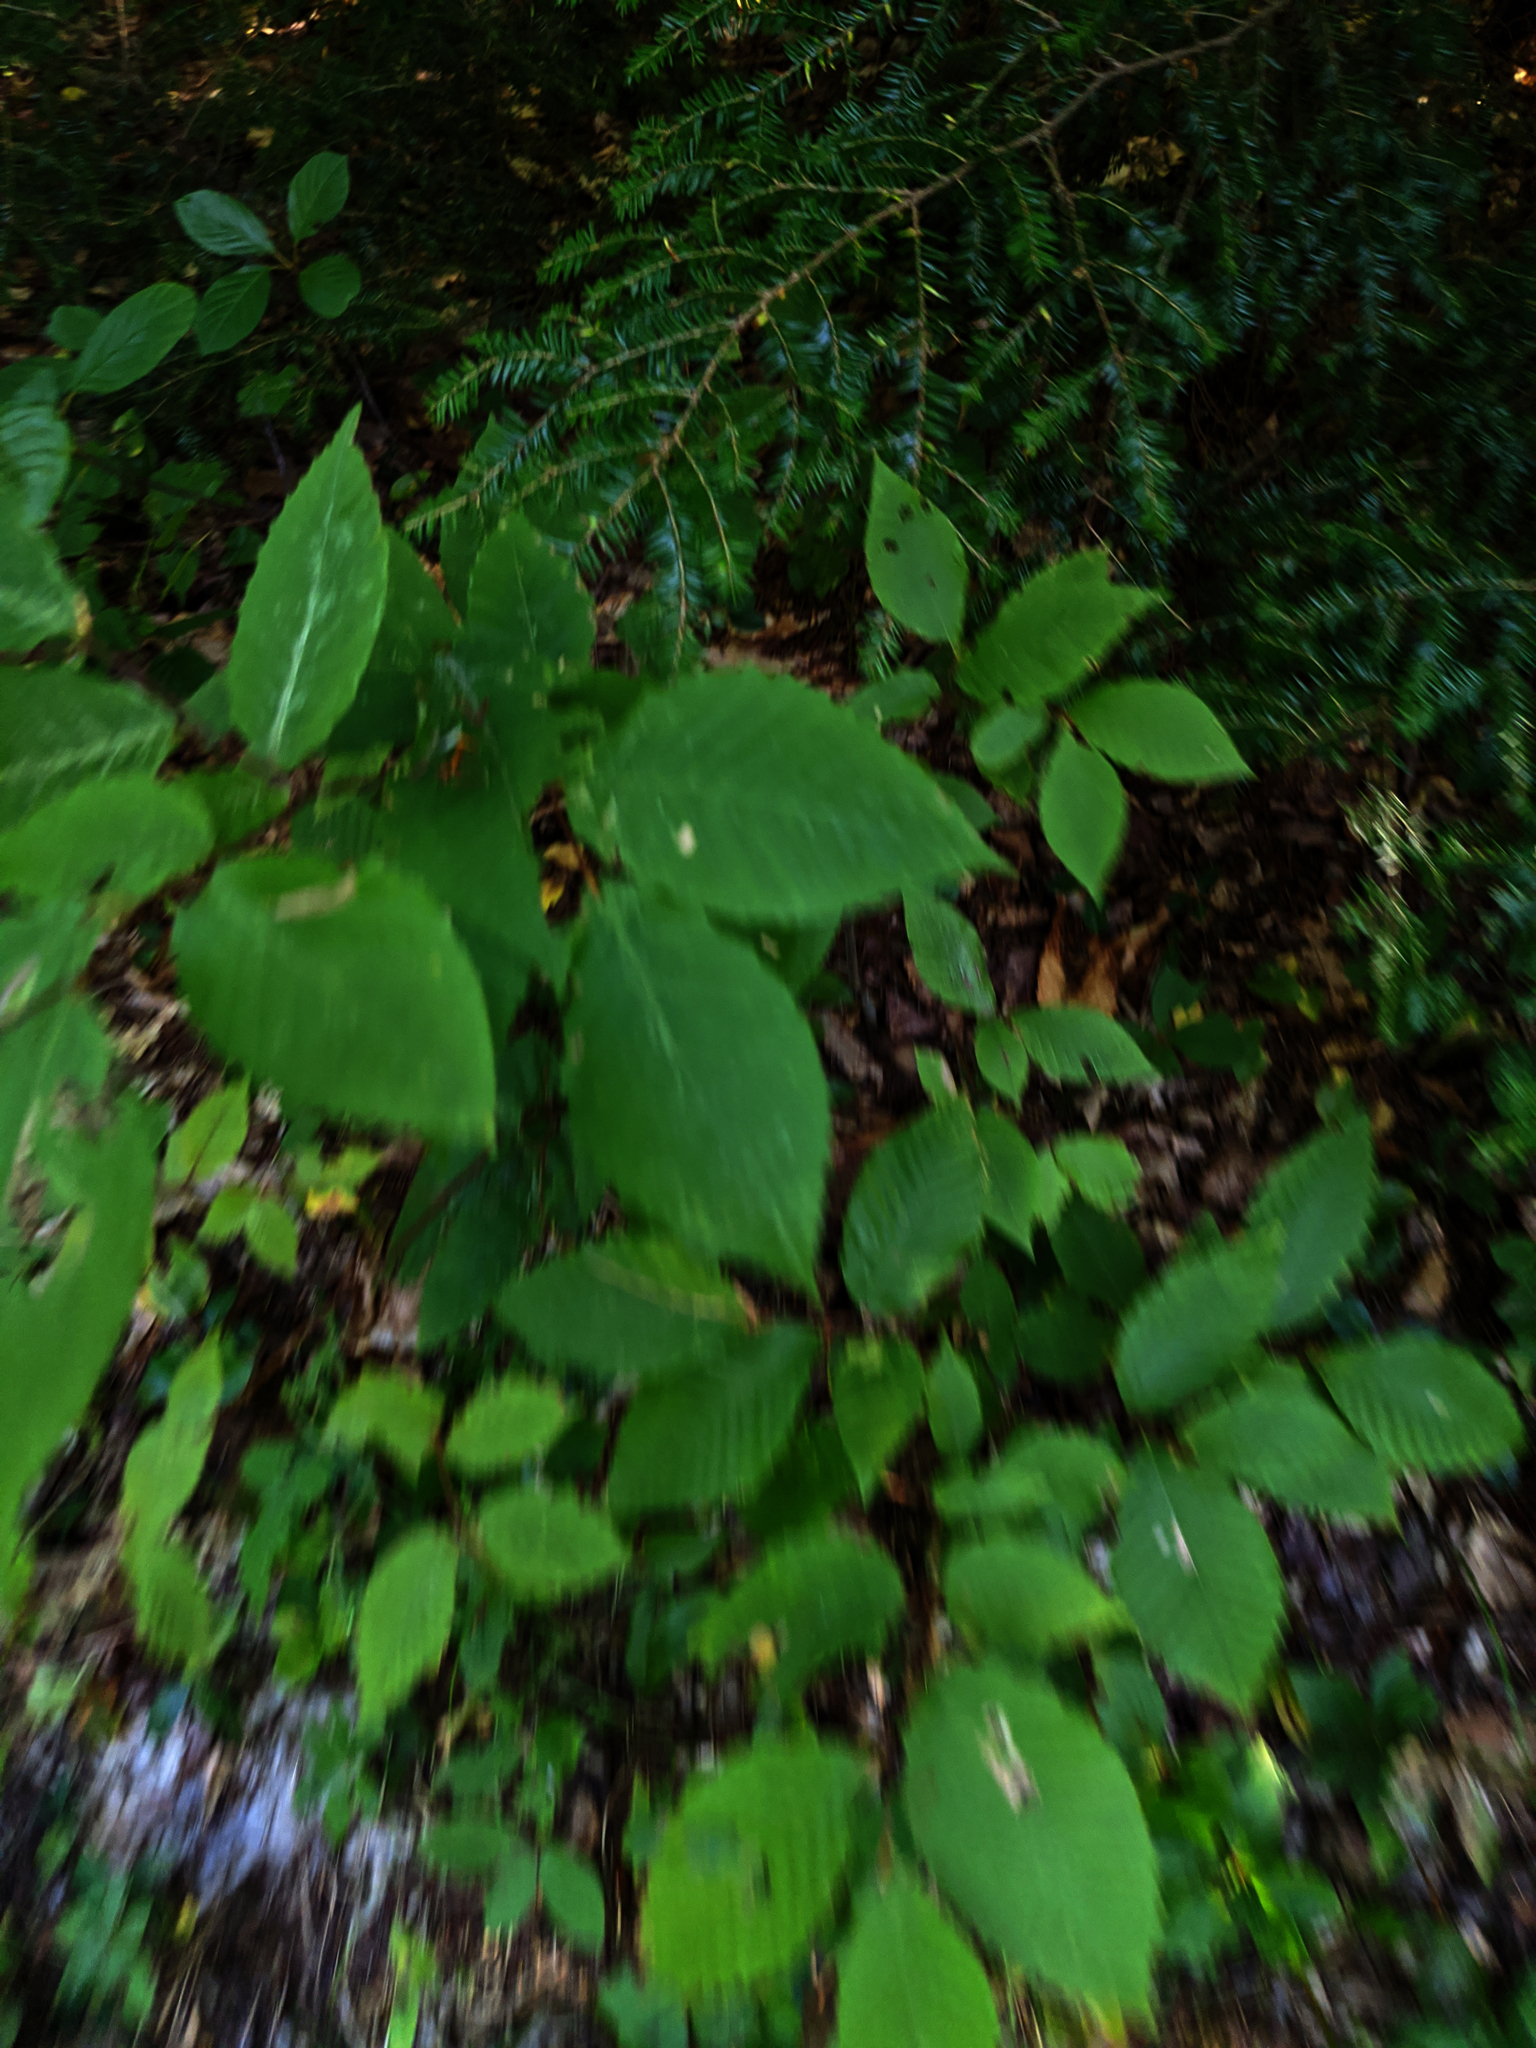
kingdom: Plantae
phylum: Tracheophyta
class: Magnoliopsida
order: Fagales
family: Fagaceae
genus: Fagus
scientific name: Fagus grandifolia
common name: American beech
